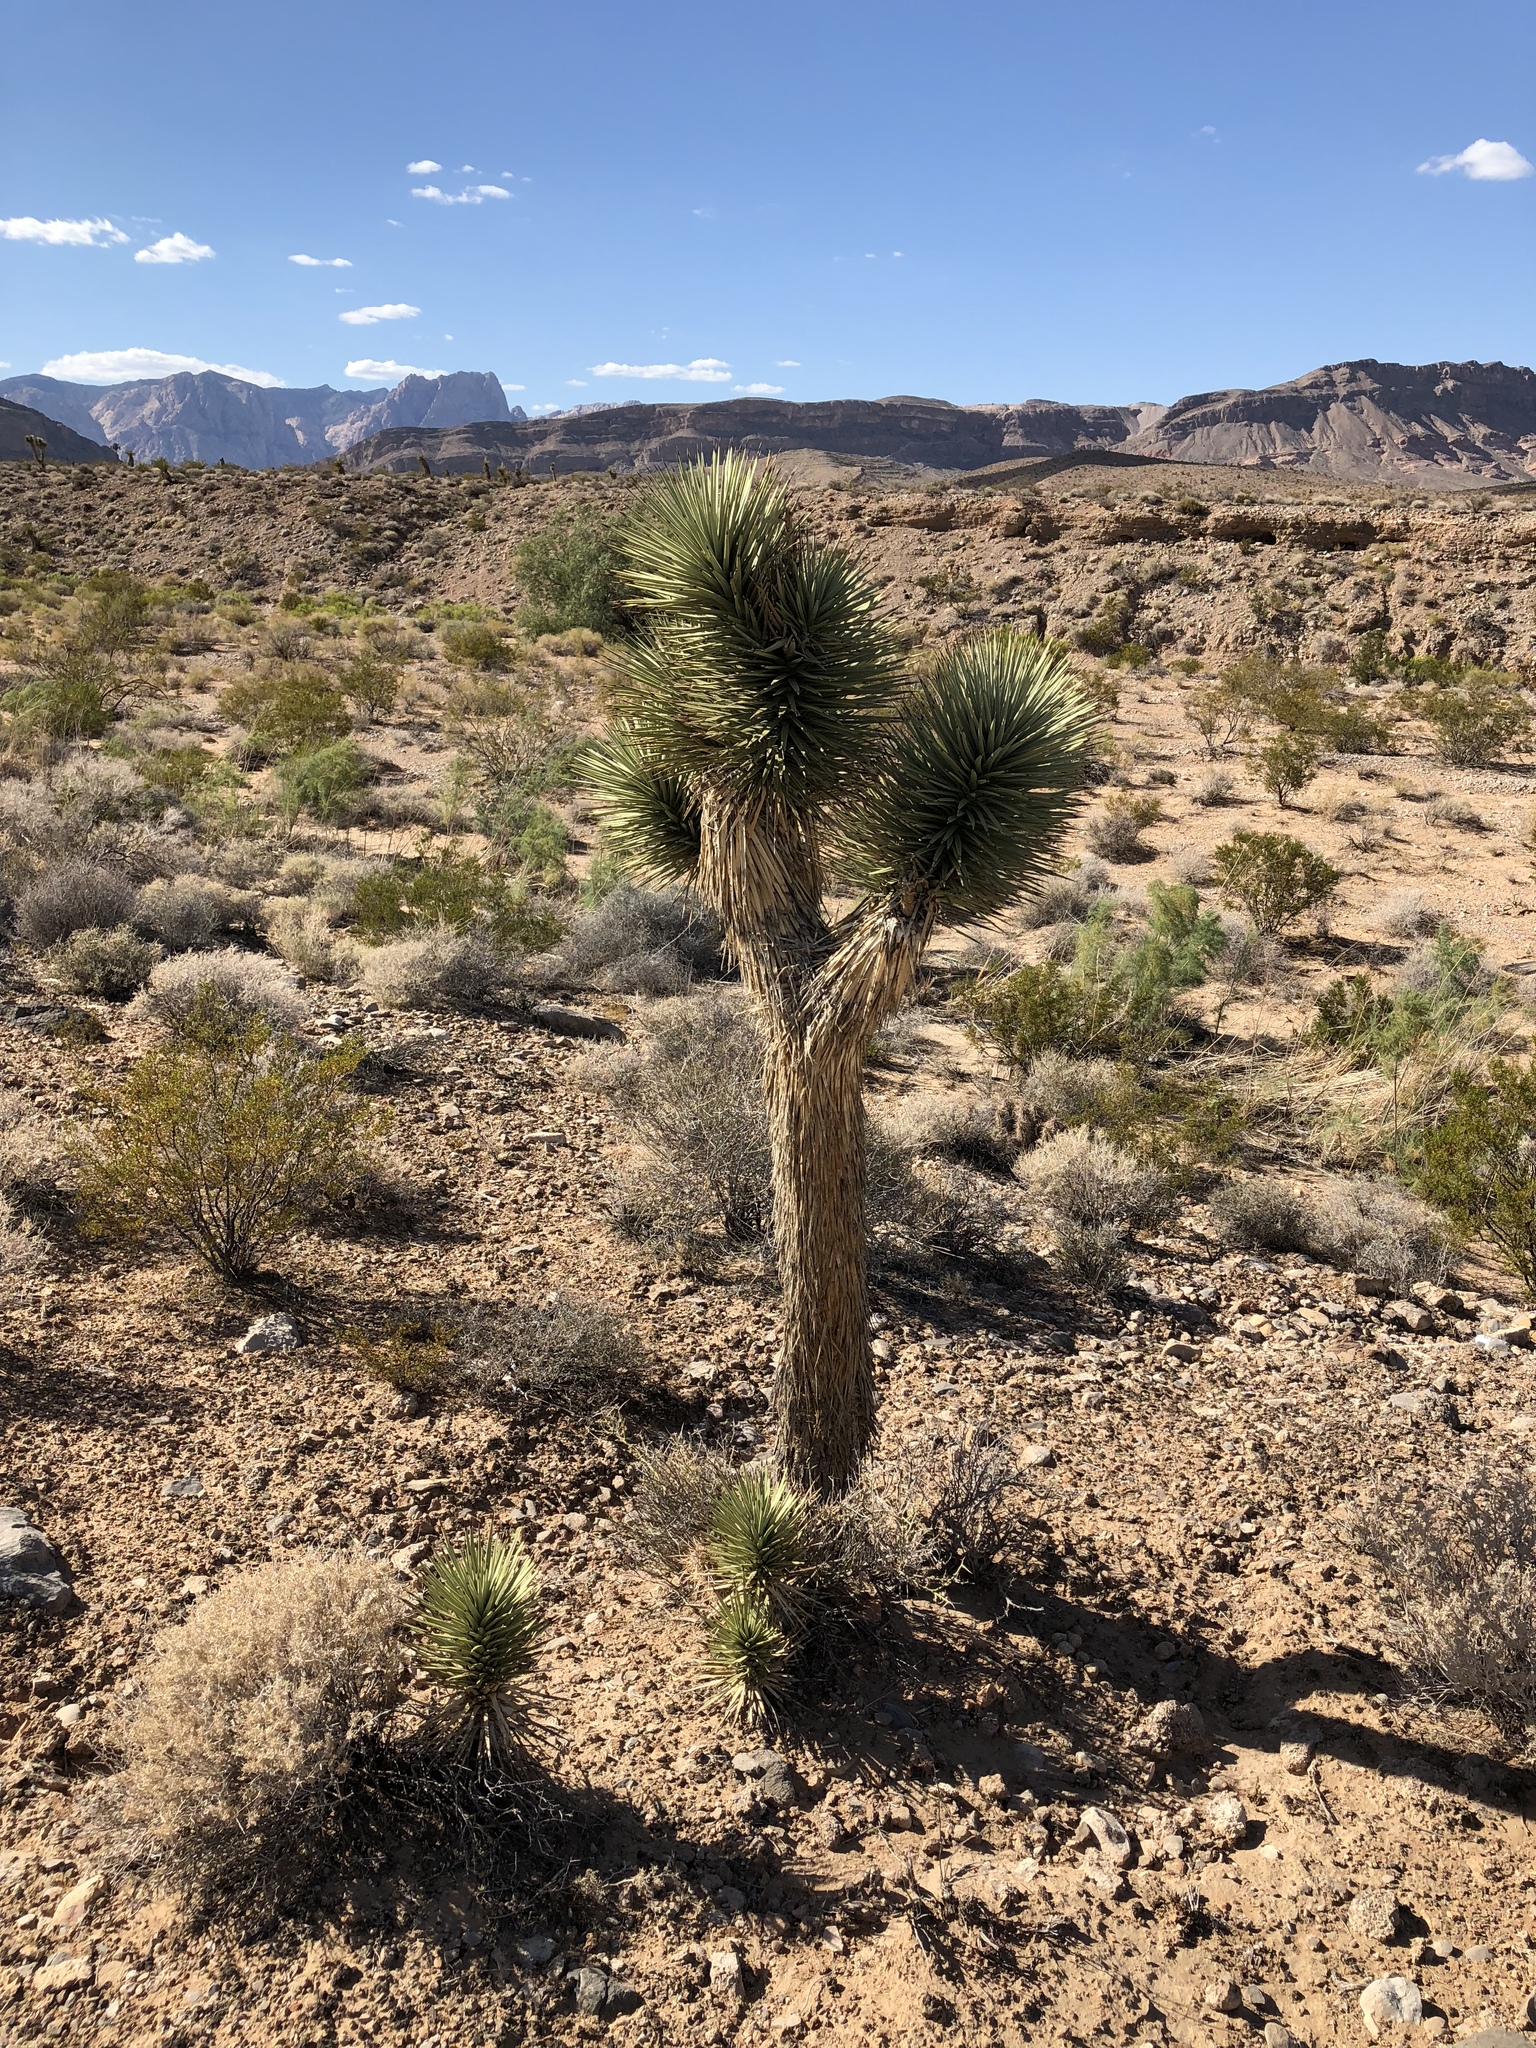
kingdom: Plantae
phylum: Tracheophyta
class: Liliopsida
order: Asparagales
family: Asparagaceae
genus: Yucca
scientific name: Yucca brevifolia
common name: Joshua tree
